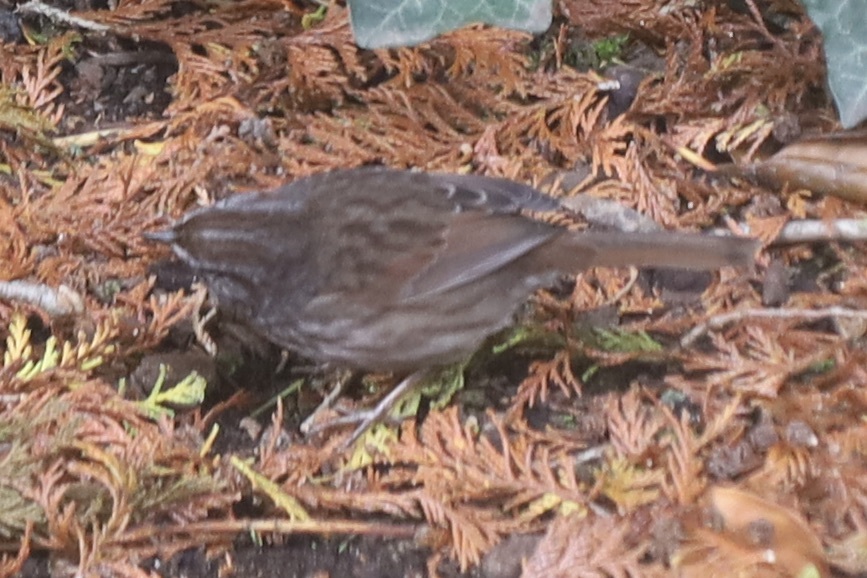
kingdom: Animalia
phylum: Chordata
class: Aves
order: Passeriformes
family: Passerellidae
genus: Melospiza
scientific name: Melospiza melodia
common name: Song sparrow
